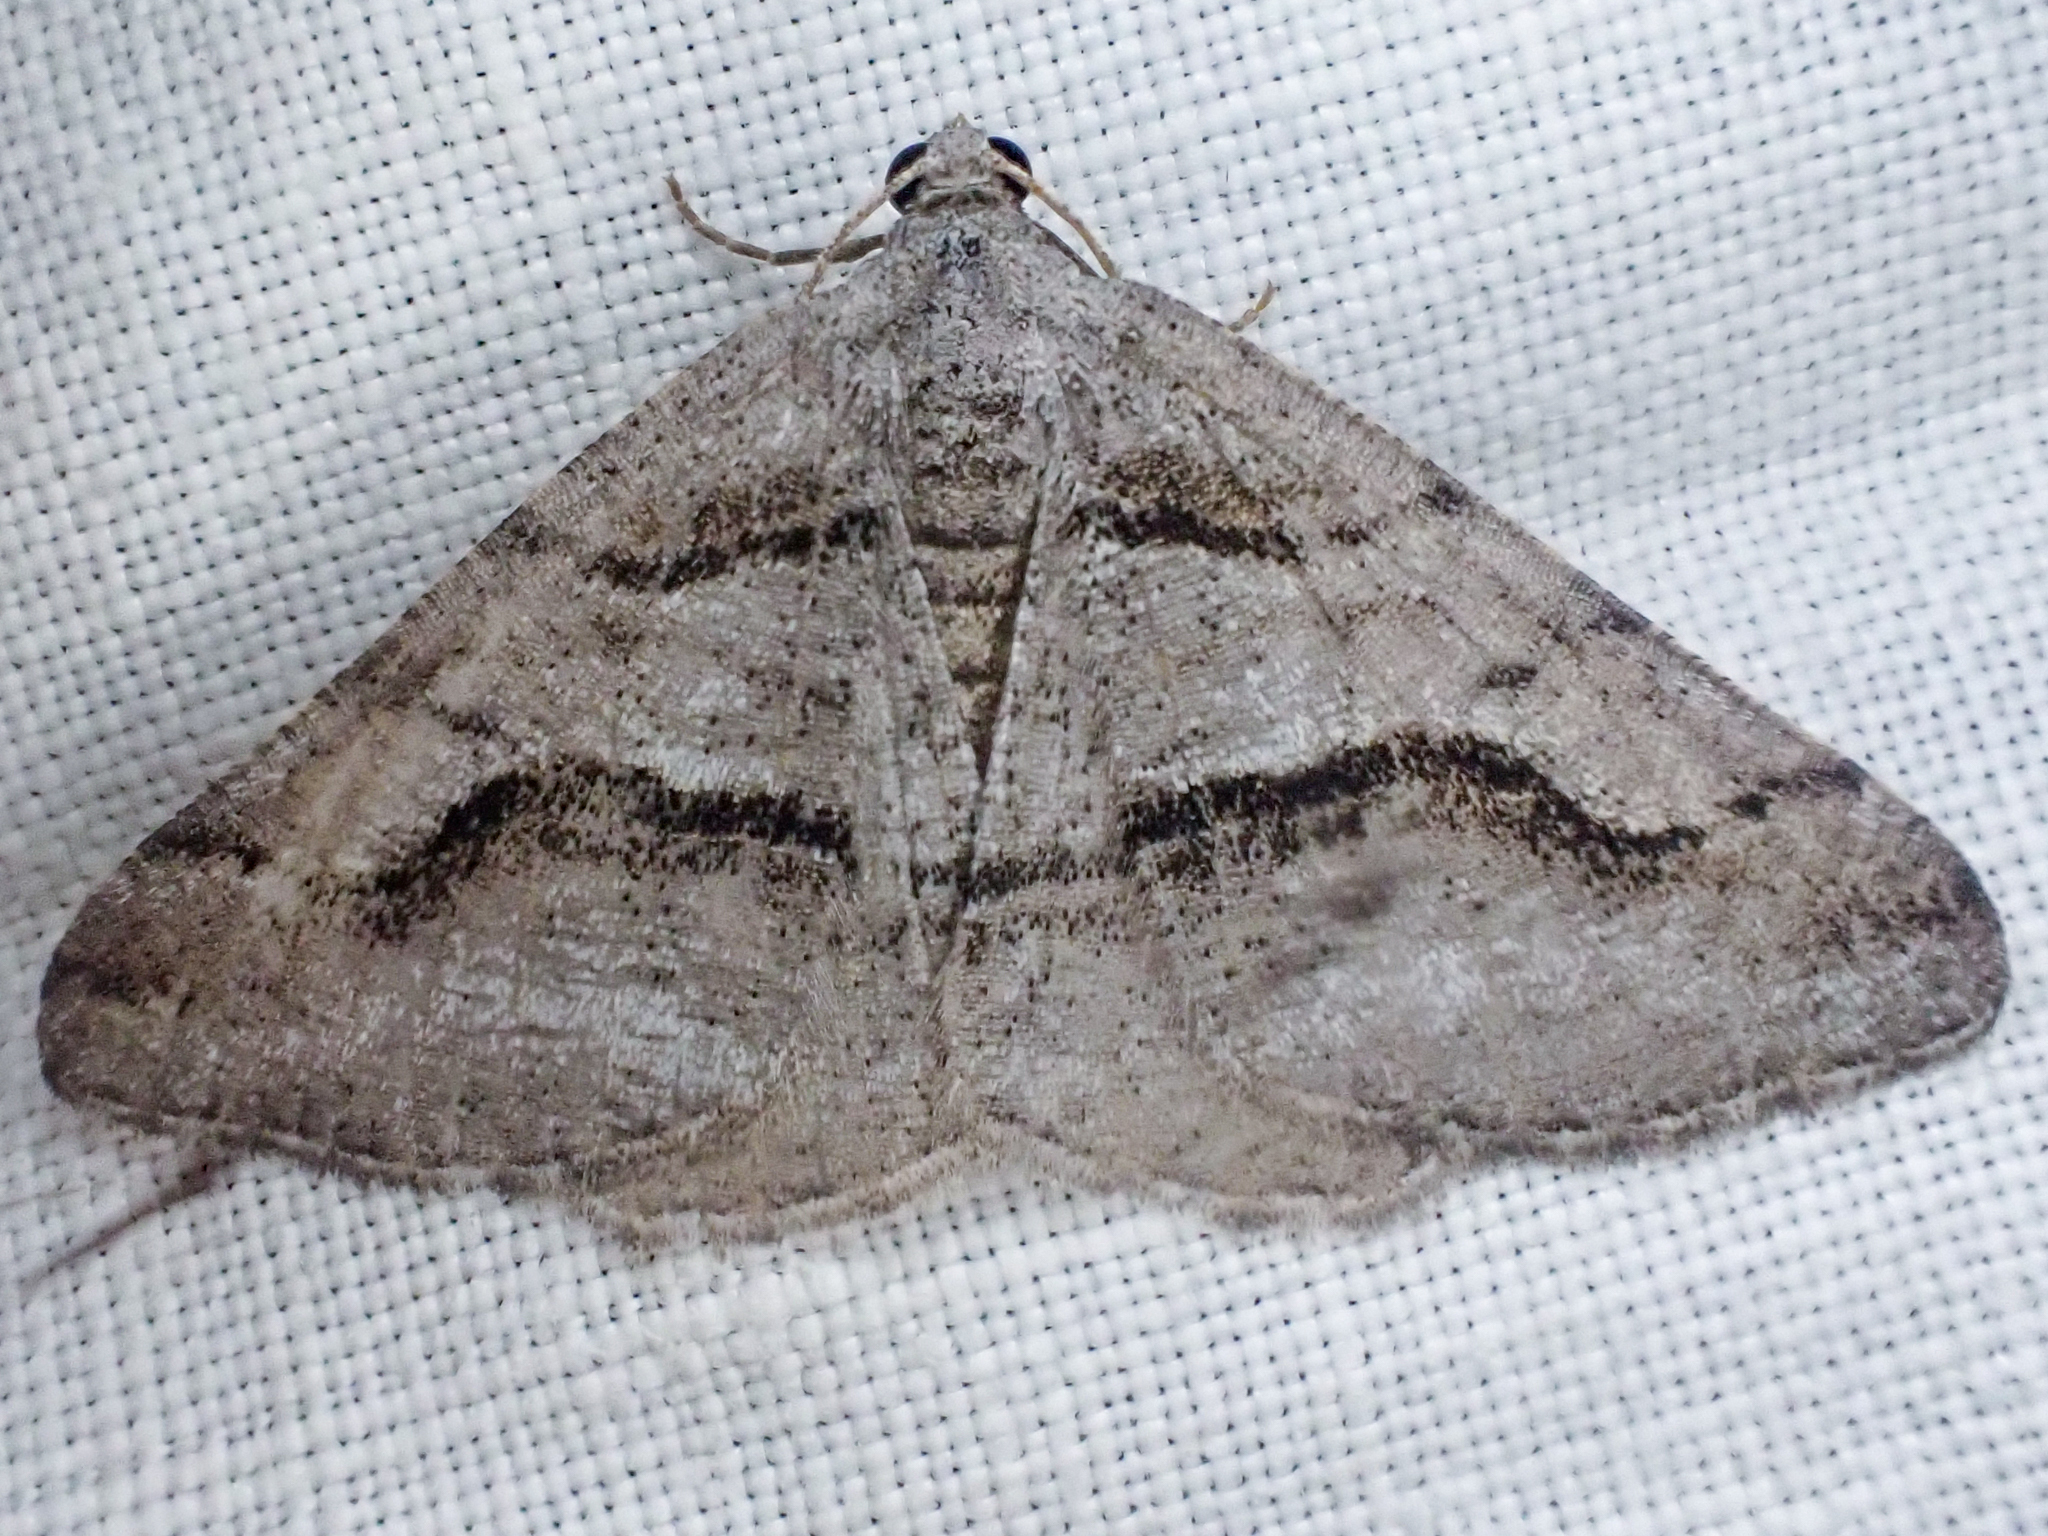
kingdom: Animalia
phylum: Arthropoda
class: Insecta
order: Lepidoptera
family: Geometridae
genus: Digrammia
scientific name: Digrammia continuata
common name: Curve-lined angle
